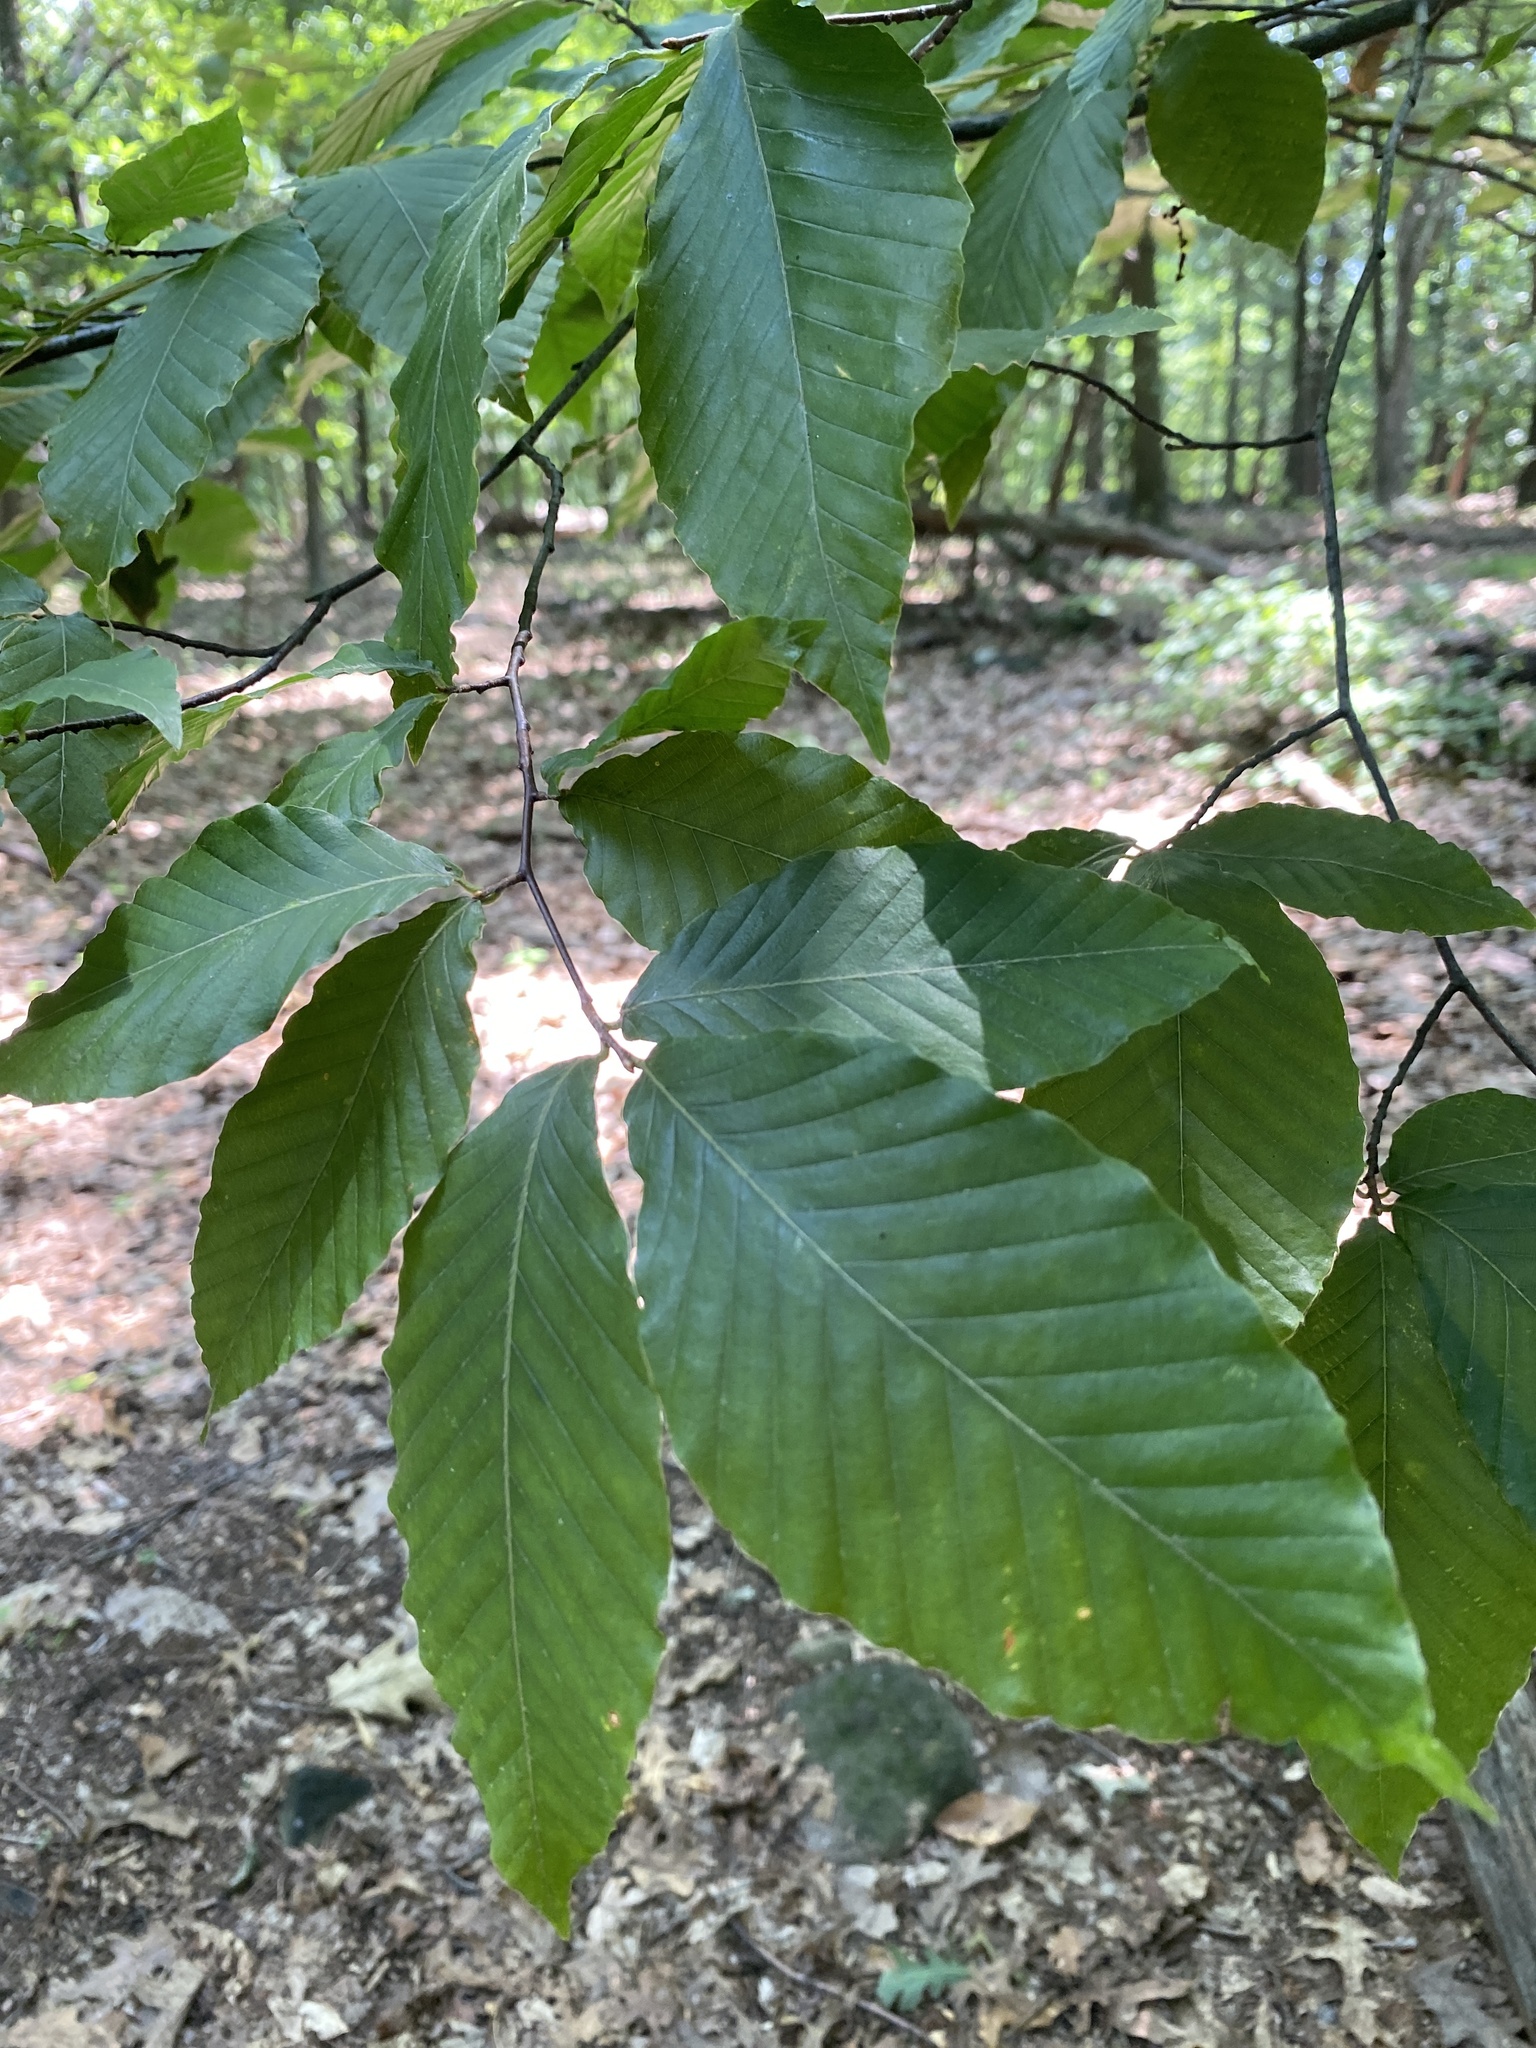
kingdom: Plantae
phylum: Tracheophyta
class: Magnoliopsida
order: Fagales
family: Fagaceae
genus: Fagus
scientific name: Fagus grandifolia
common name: American beech
